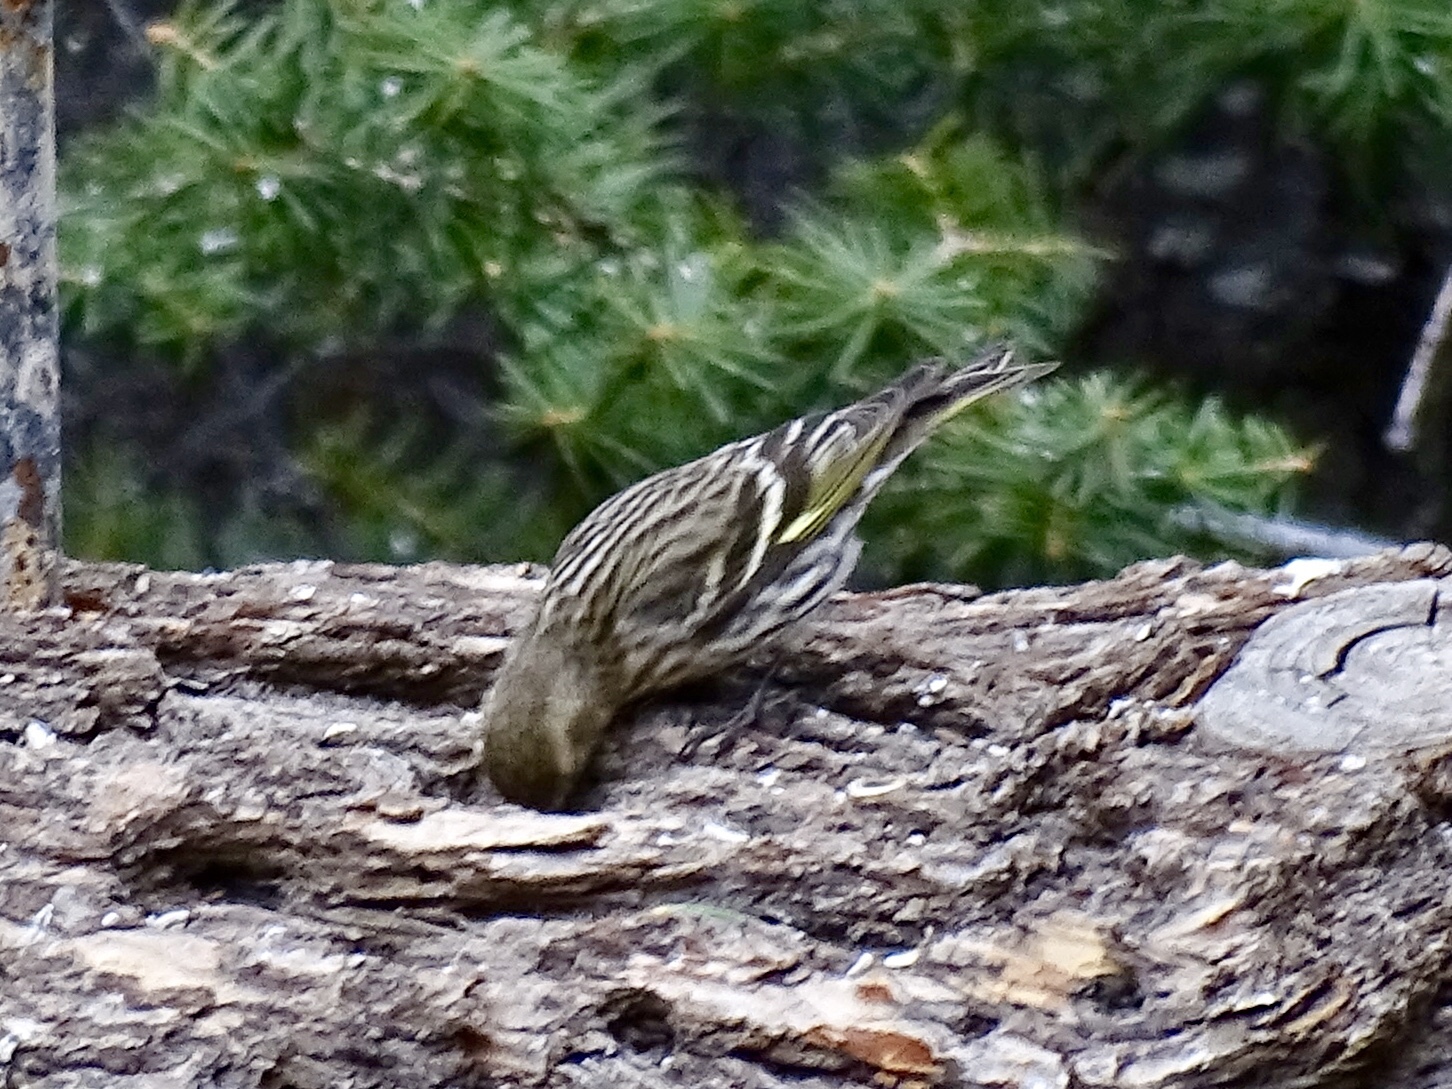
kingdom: Animalia
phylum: Chordata
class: Aves
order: Passeriformes
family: Fringillidae
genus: Spinus
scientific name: Spinus pinus
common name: Pine siskin
